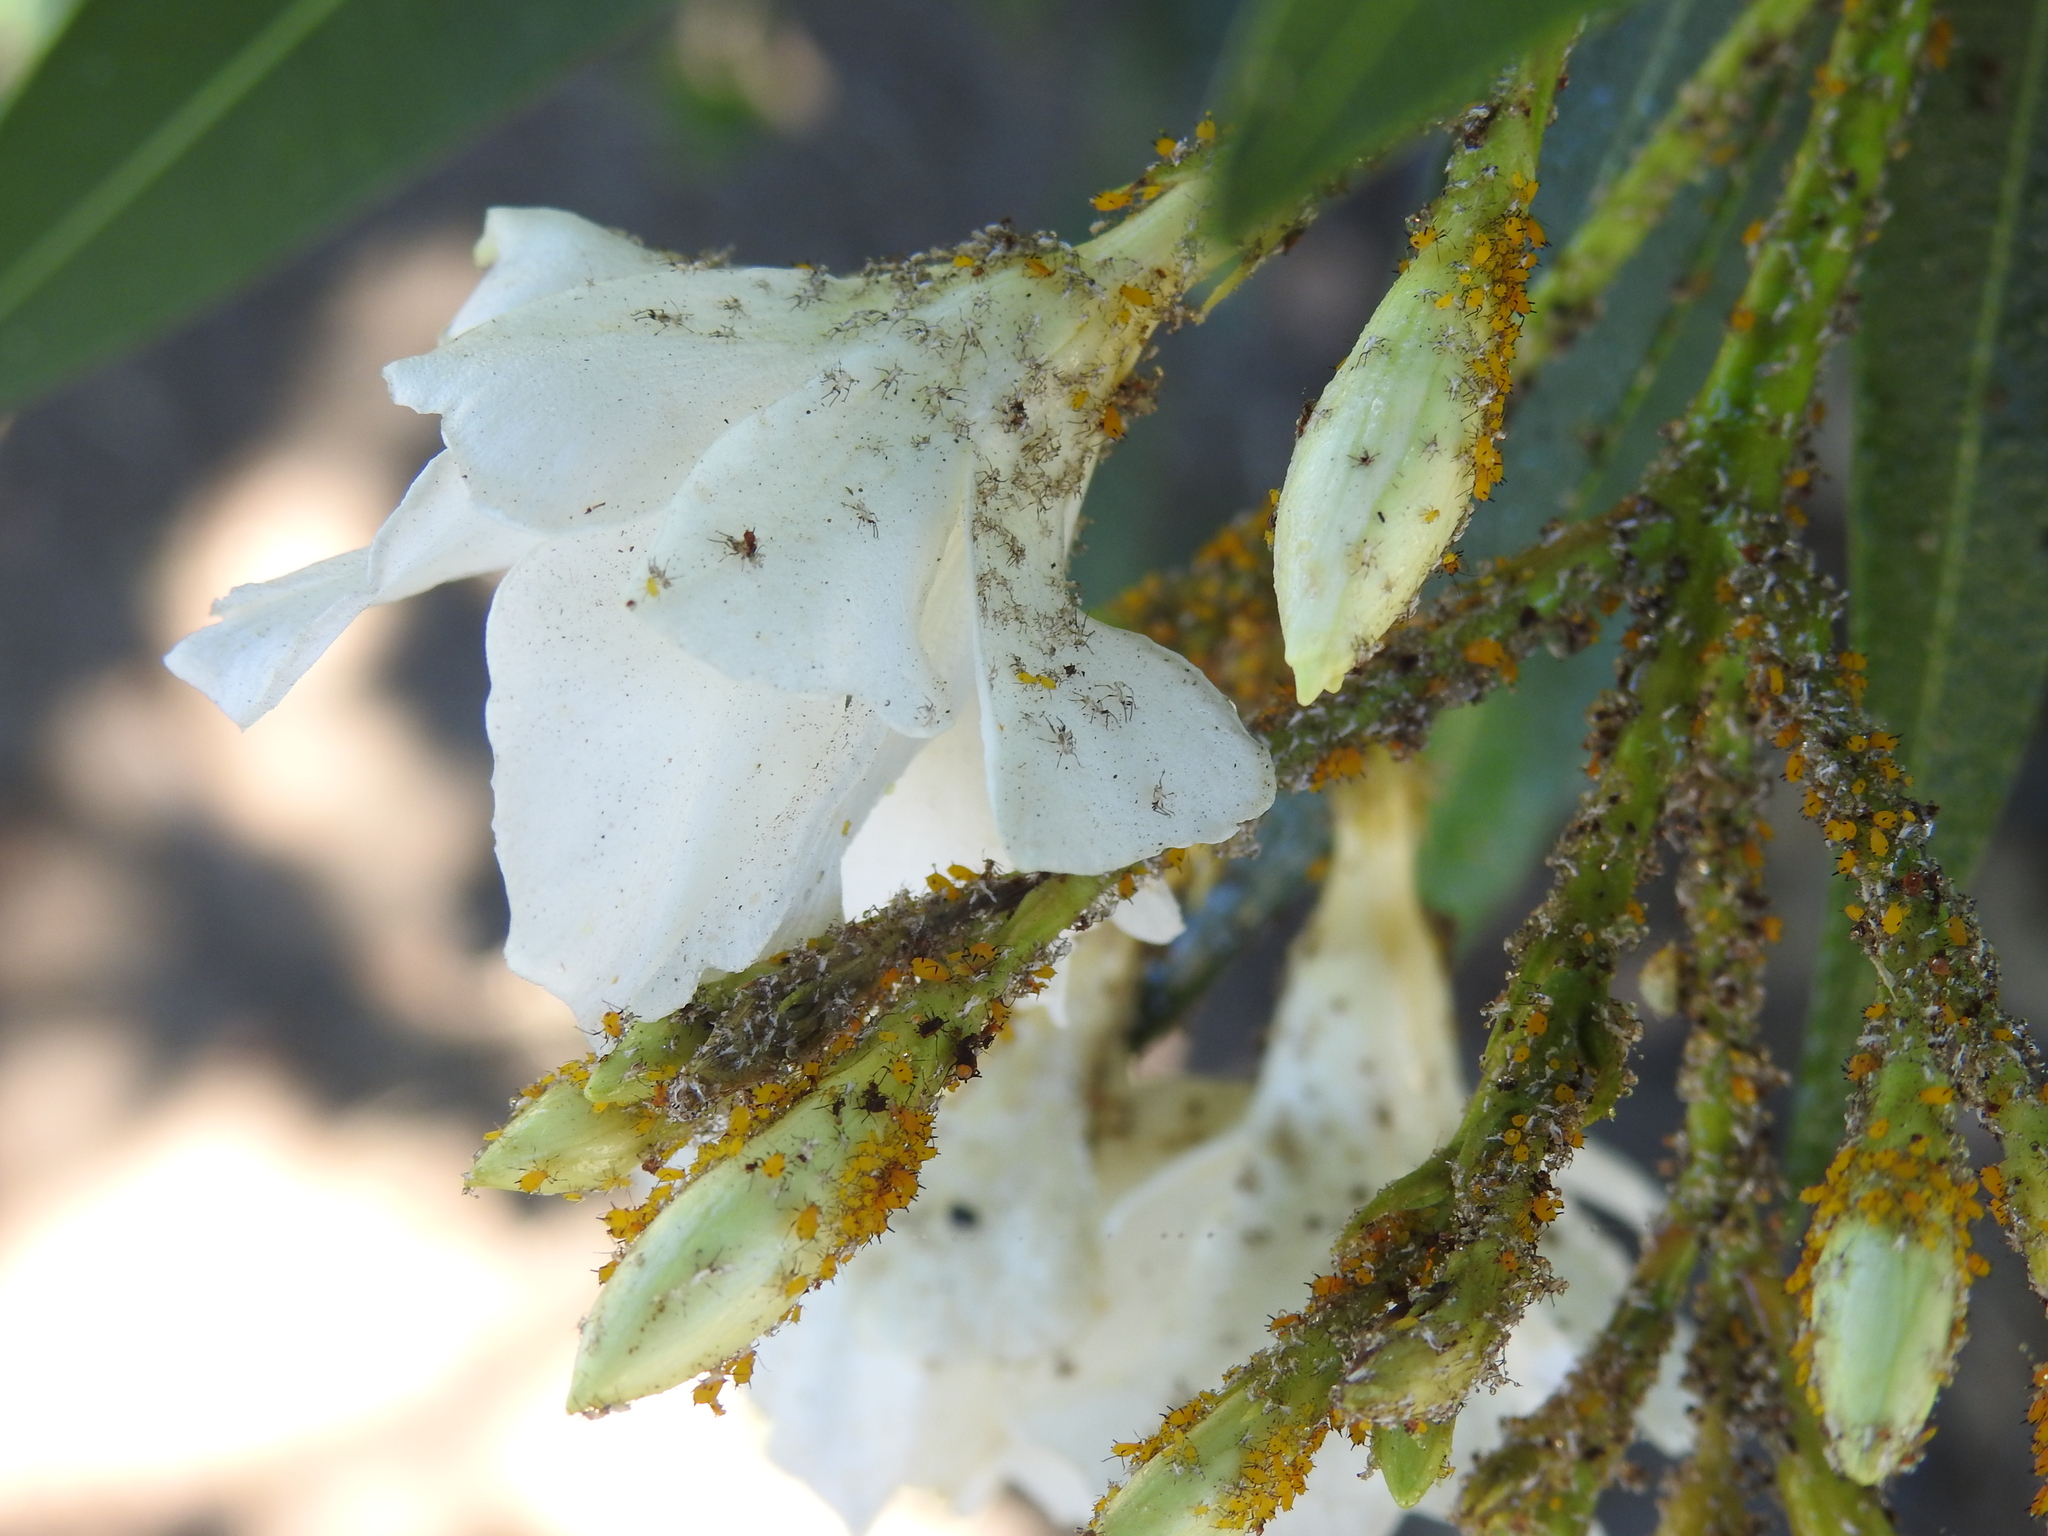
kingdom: Animalia
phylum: Arthropoda
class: Insecta
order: Hemiptera
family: Aphididae
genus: Aphis
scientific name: Aphis nerii
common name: Oleander aphid
